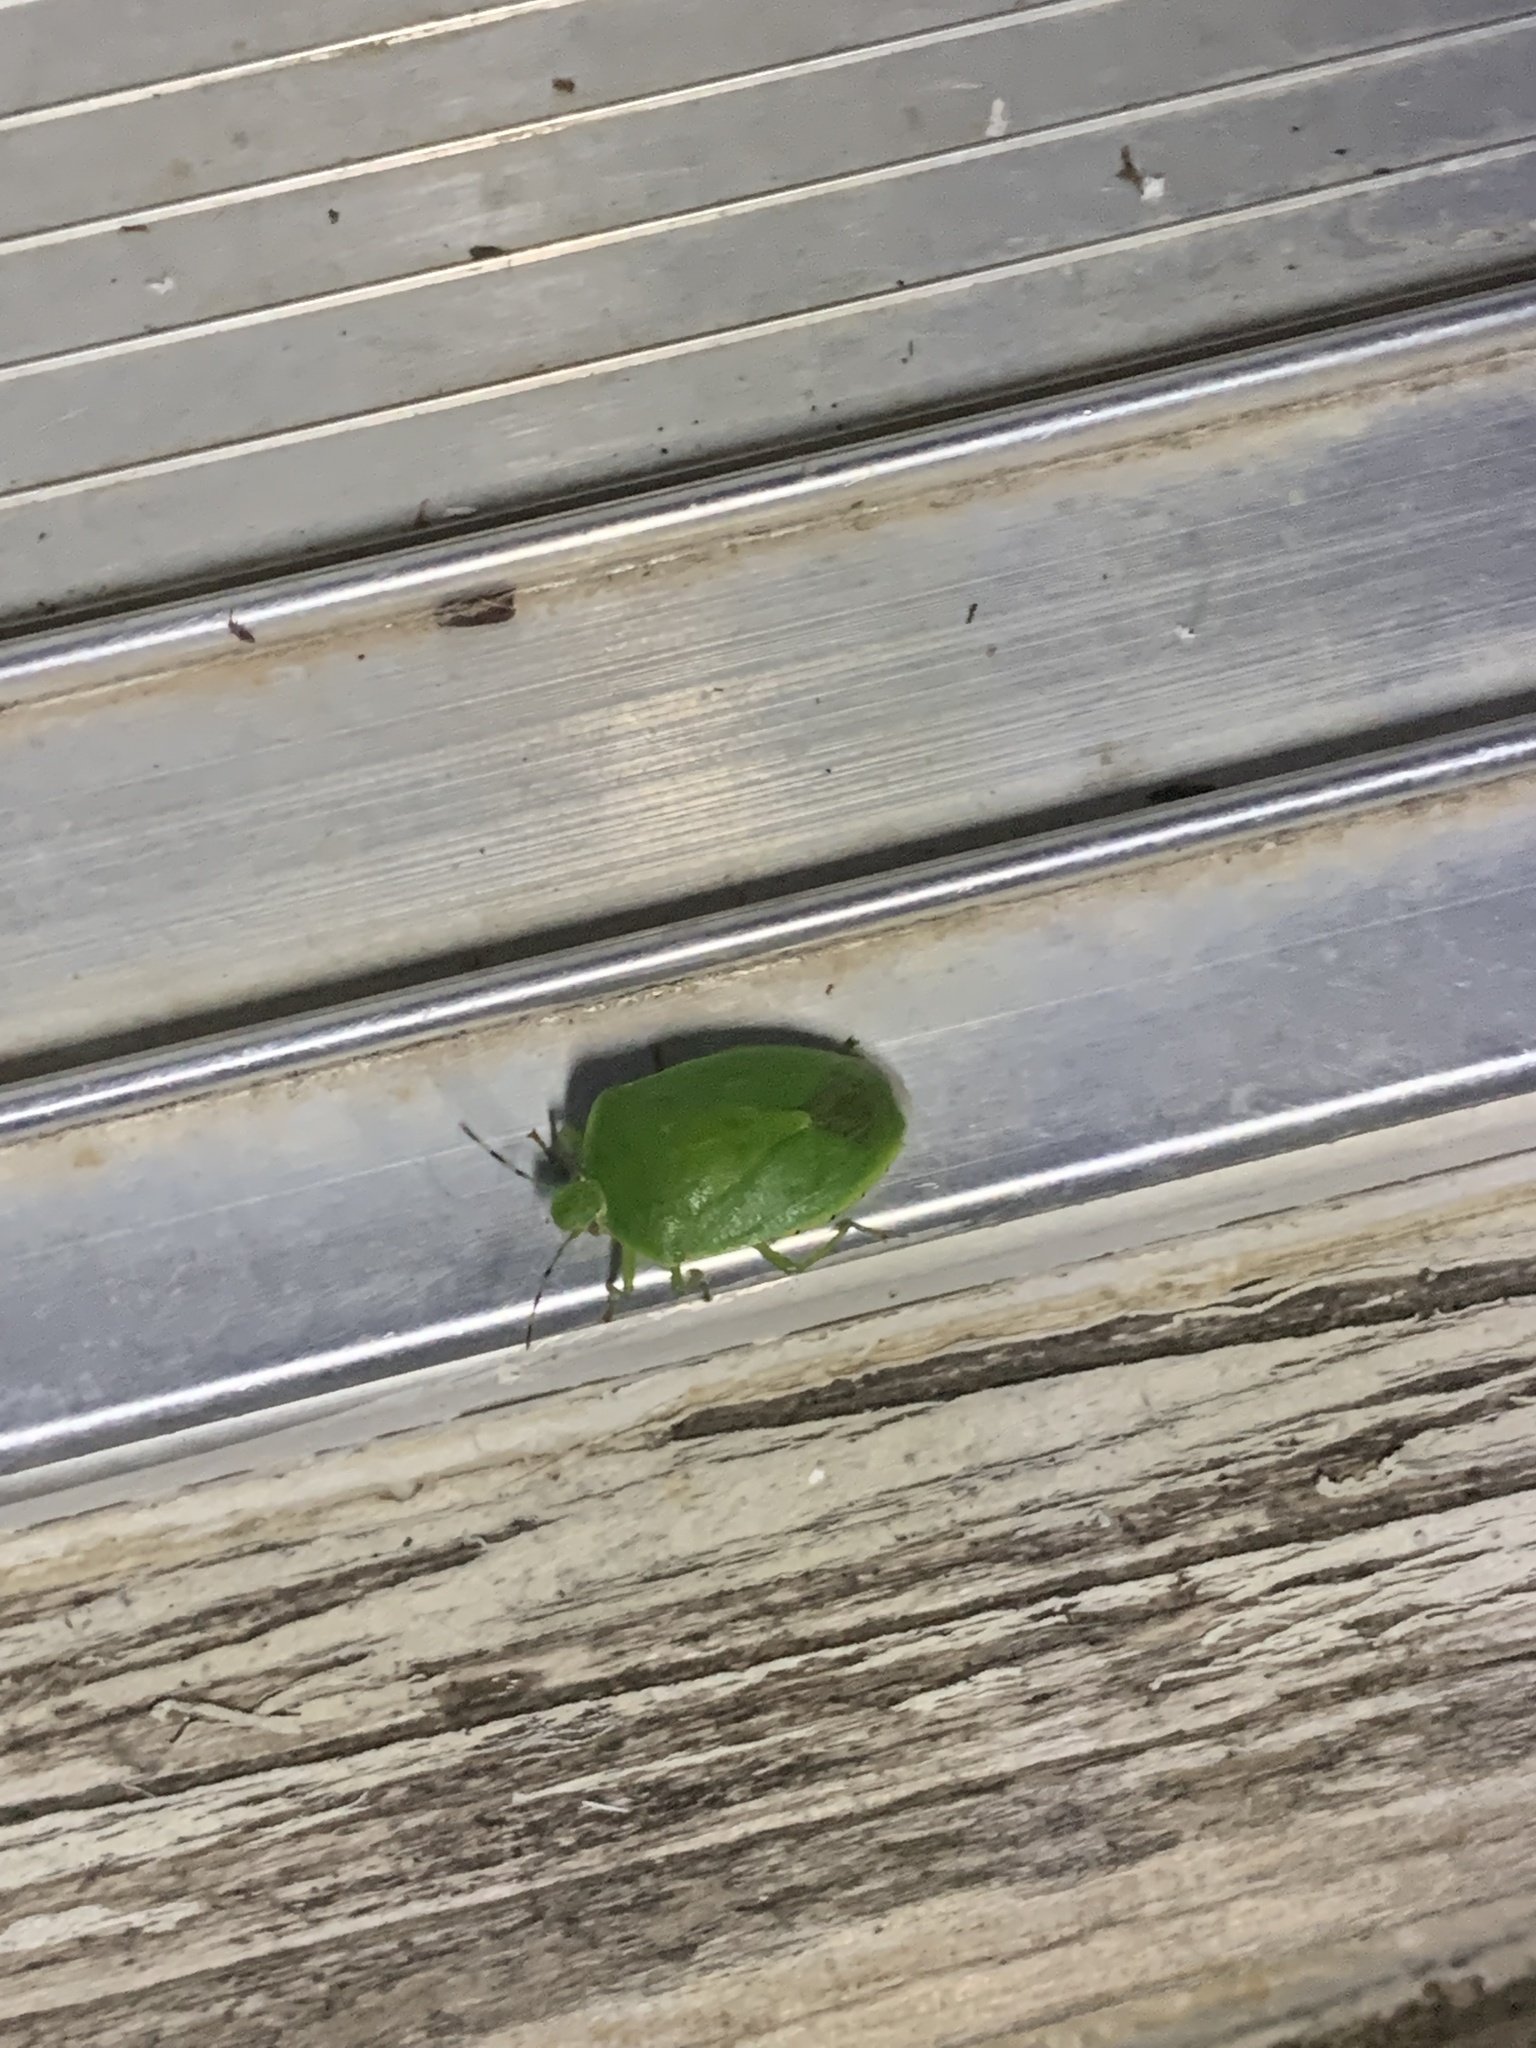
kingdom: Animalia
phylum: Arthropoda
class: Insecta
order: Hemiptera
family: Pentatomidae
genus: Chinavia
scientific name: Chinavia hilaris
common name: Green stink bug
